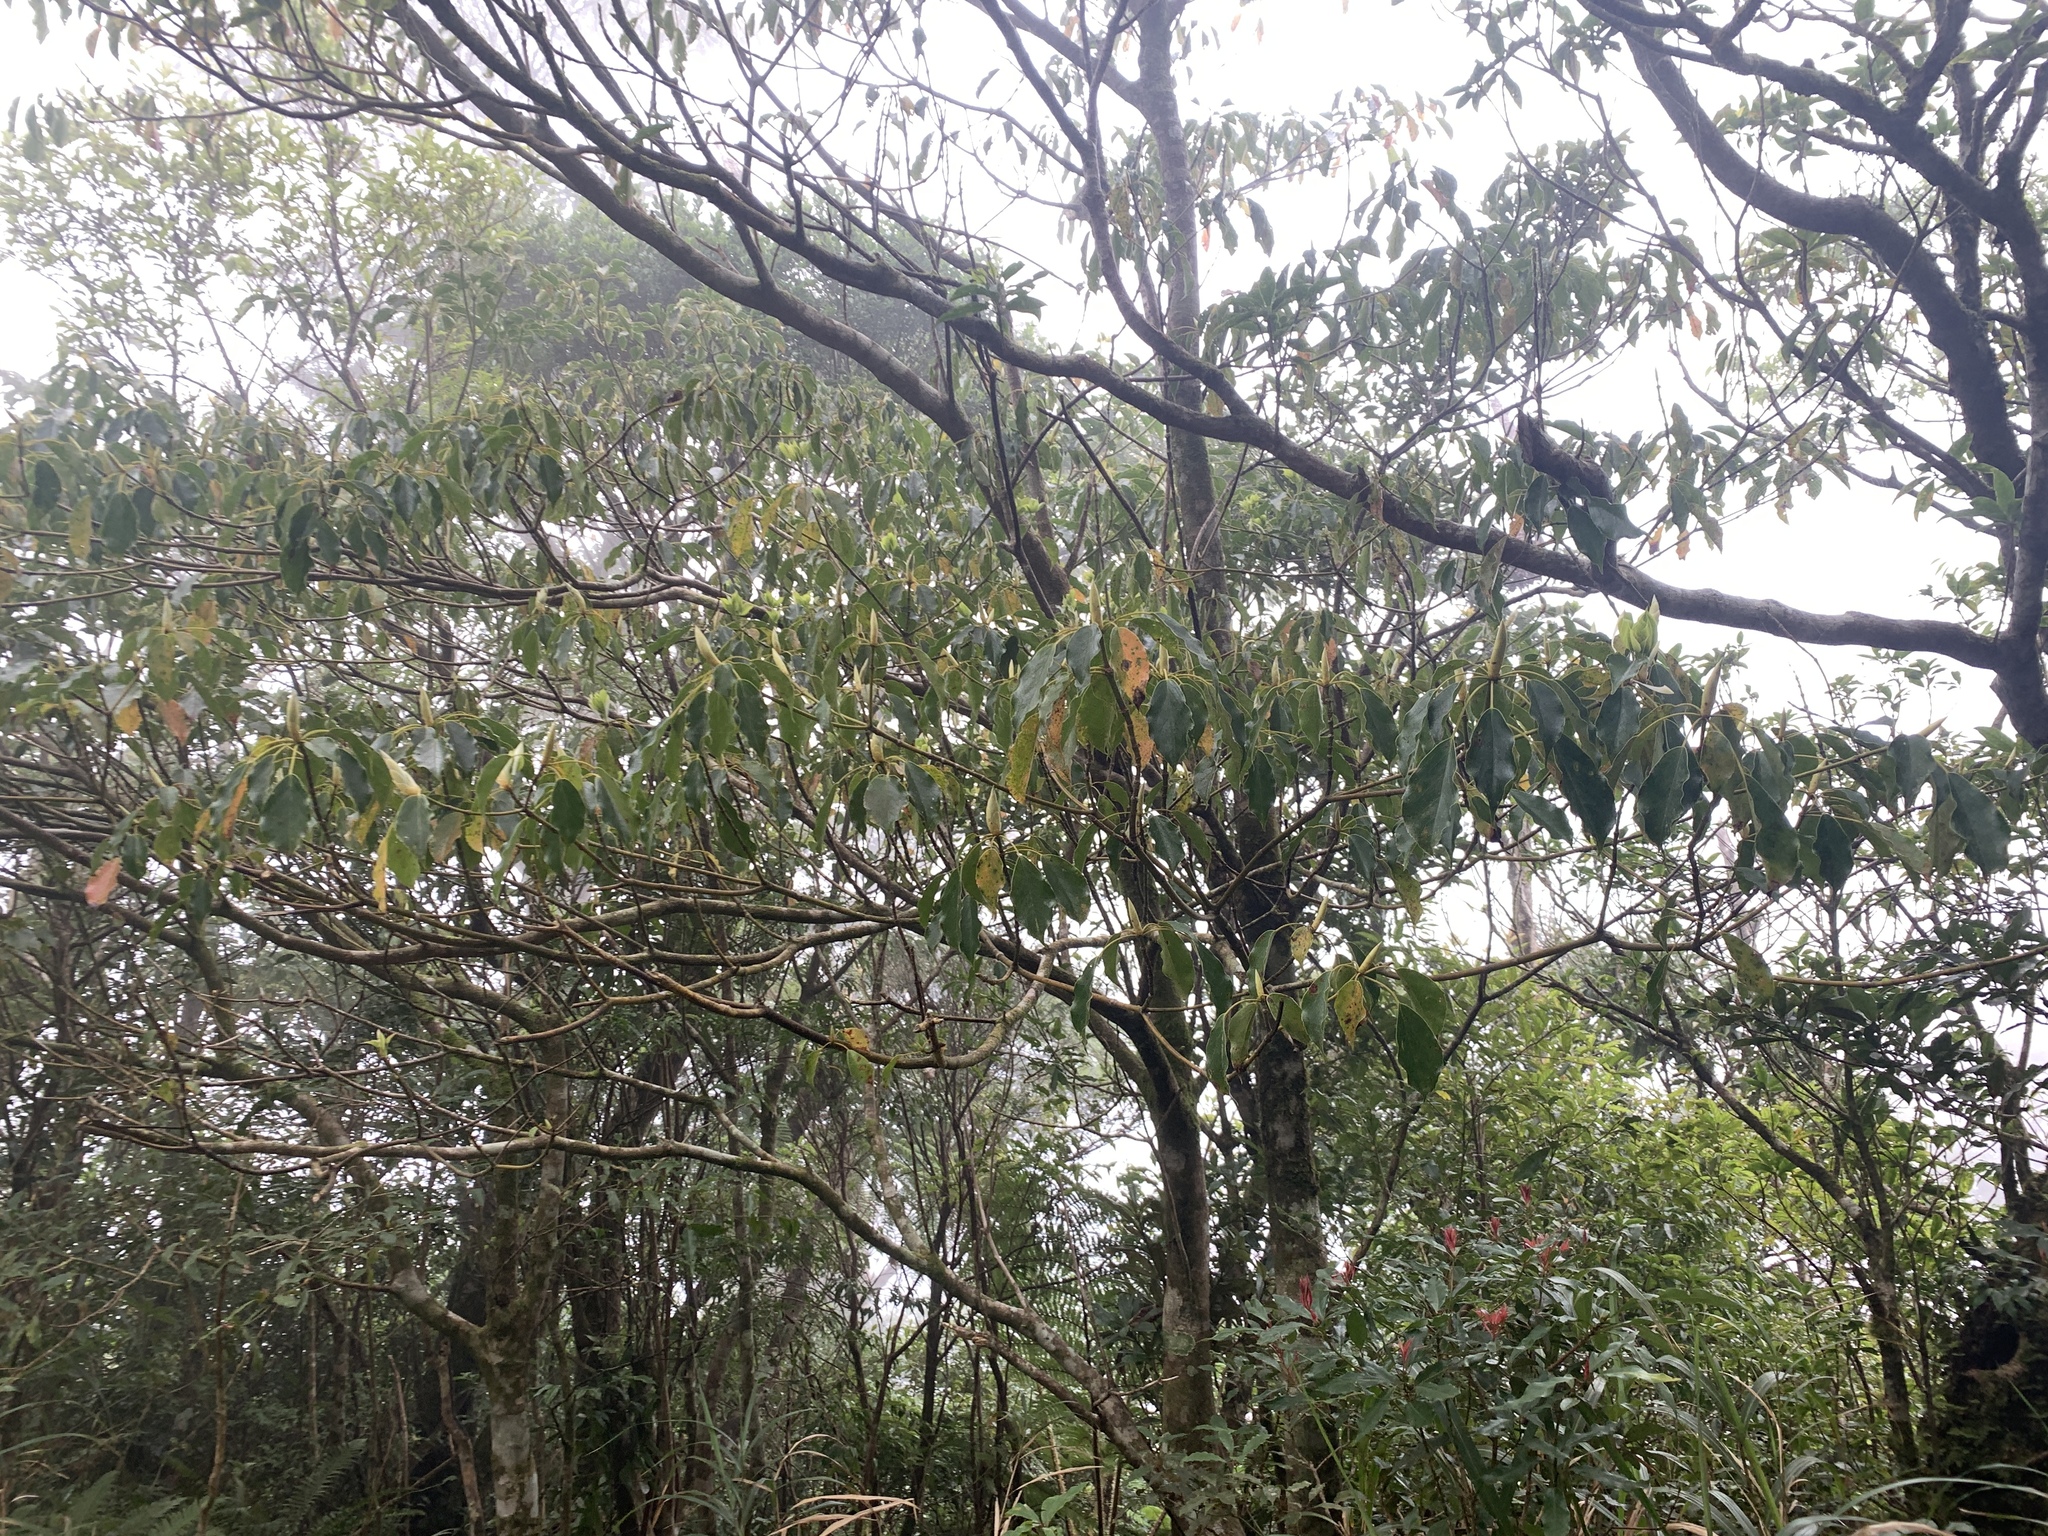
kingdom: Plantae
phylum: Tracheophyta
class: Magnoliopsida
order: Trochodendrales
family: Trochodendraceae
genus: Trochodendron
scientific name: Trochodendron aralioides
